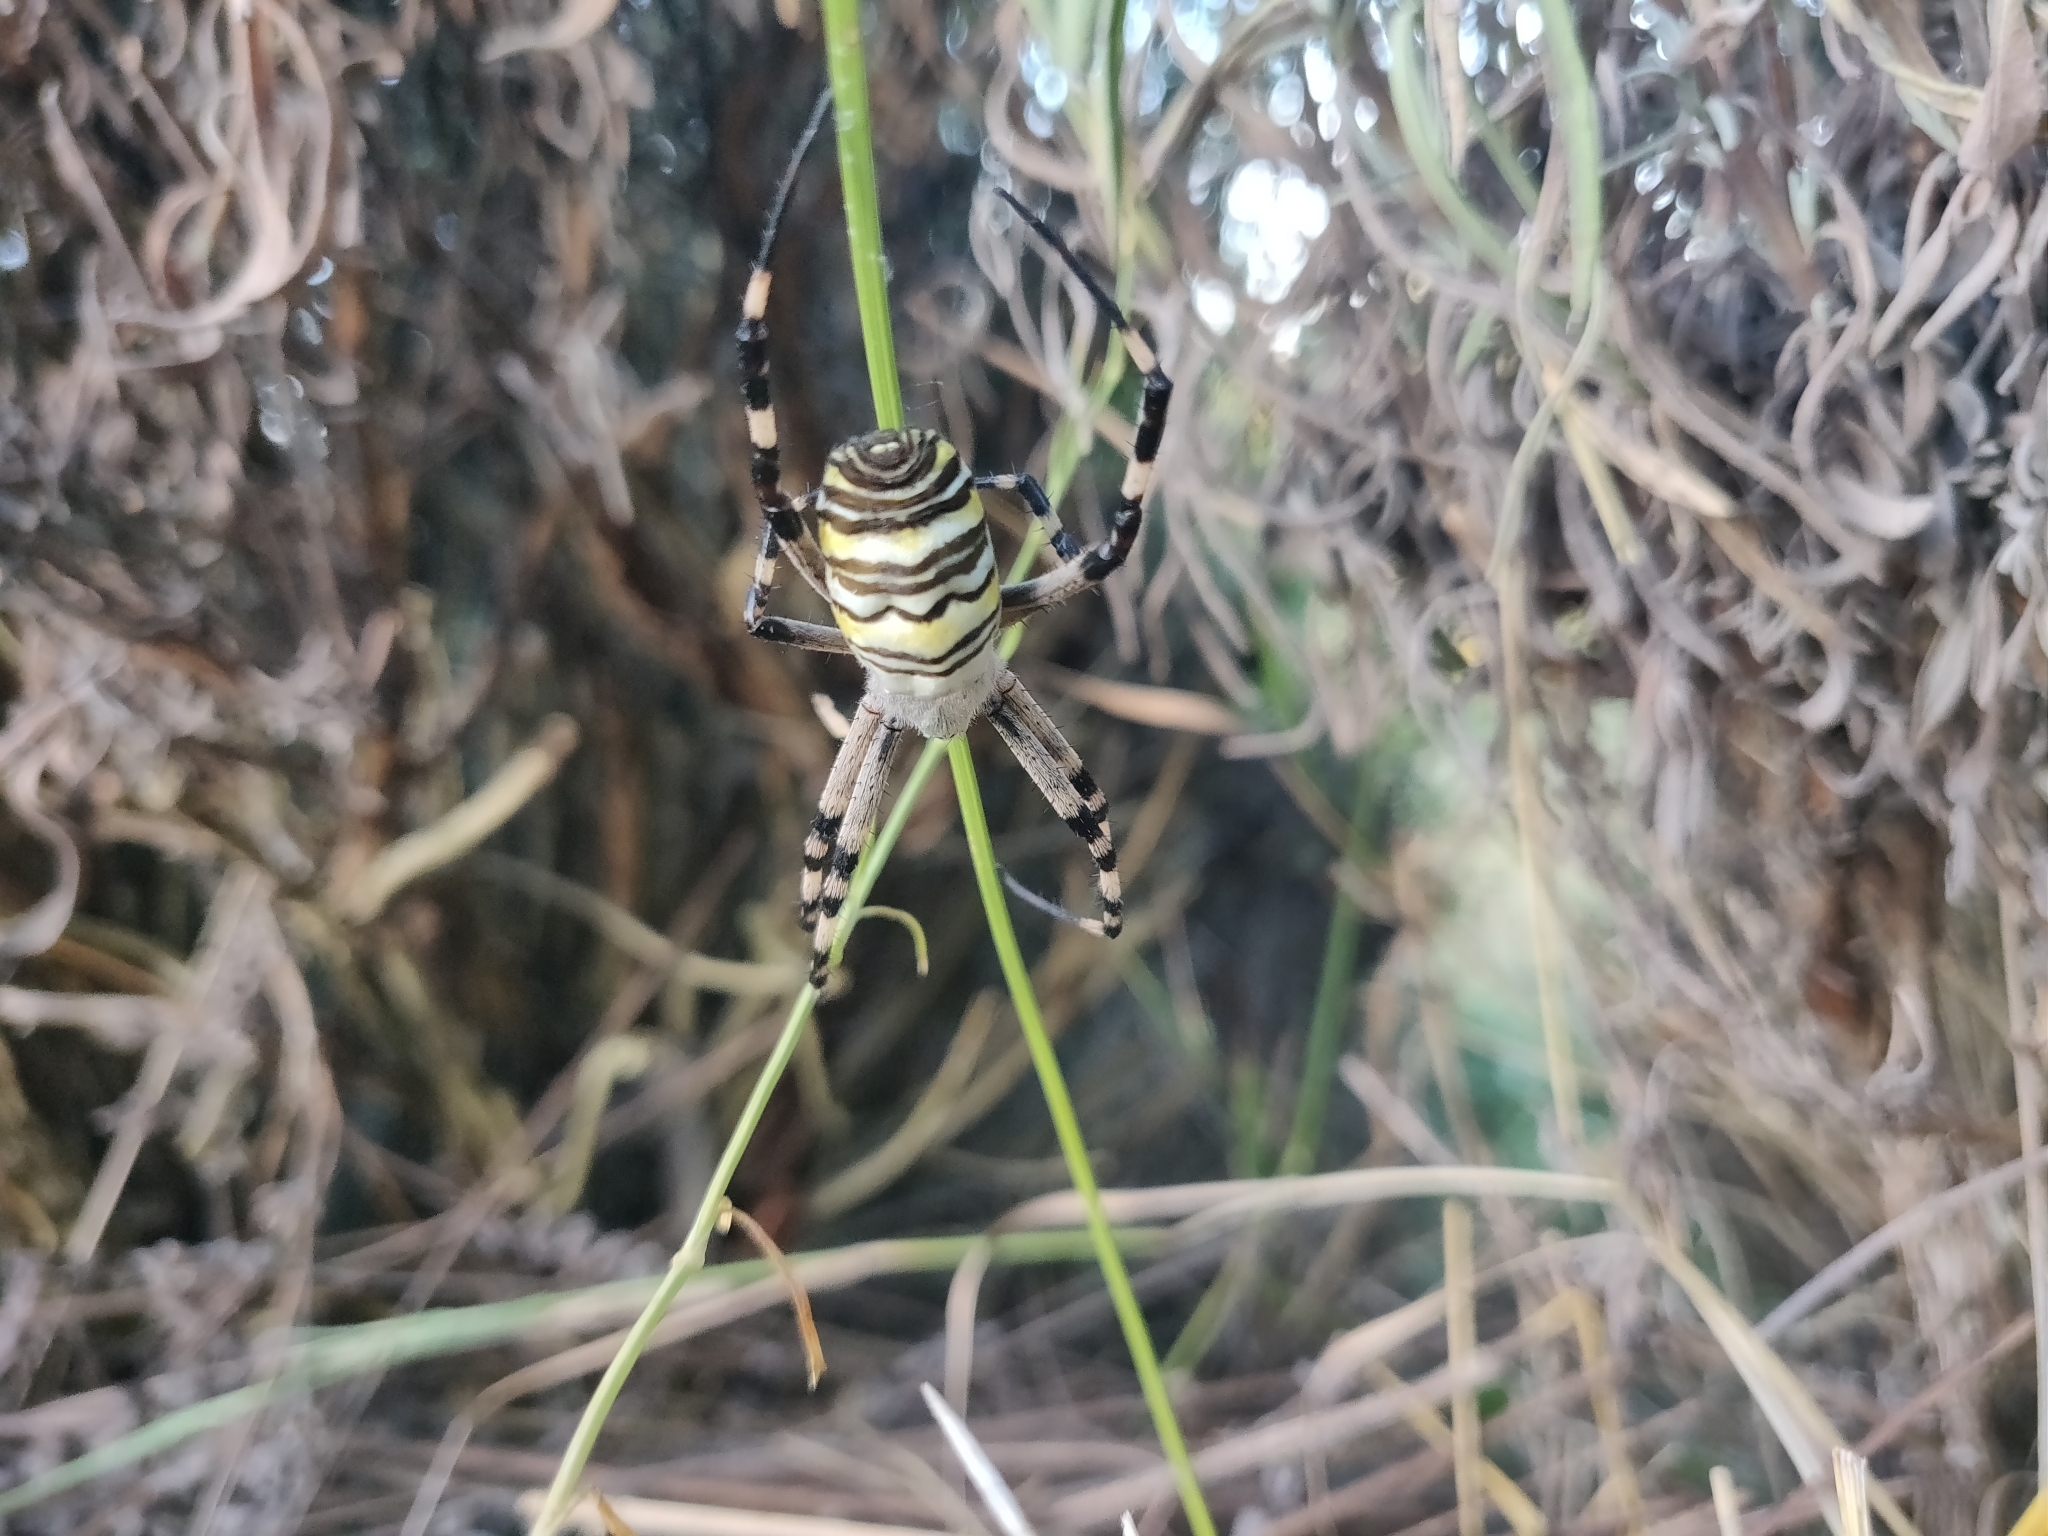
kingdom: Animalia
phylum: Arthropoda
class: Arachnida
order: Araneae
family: Araneidae
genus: Argiope
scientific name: Argiope bruennichi
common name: Wasp spider
